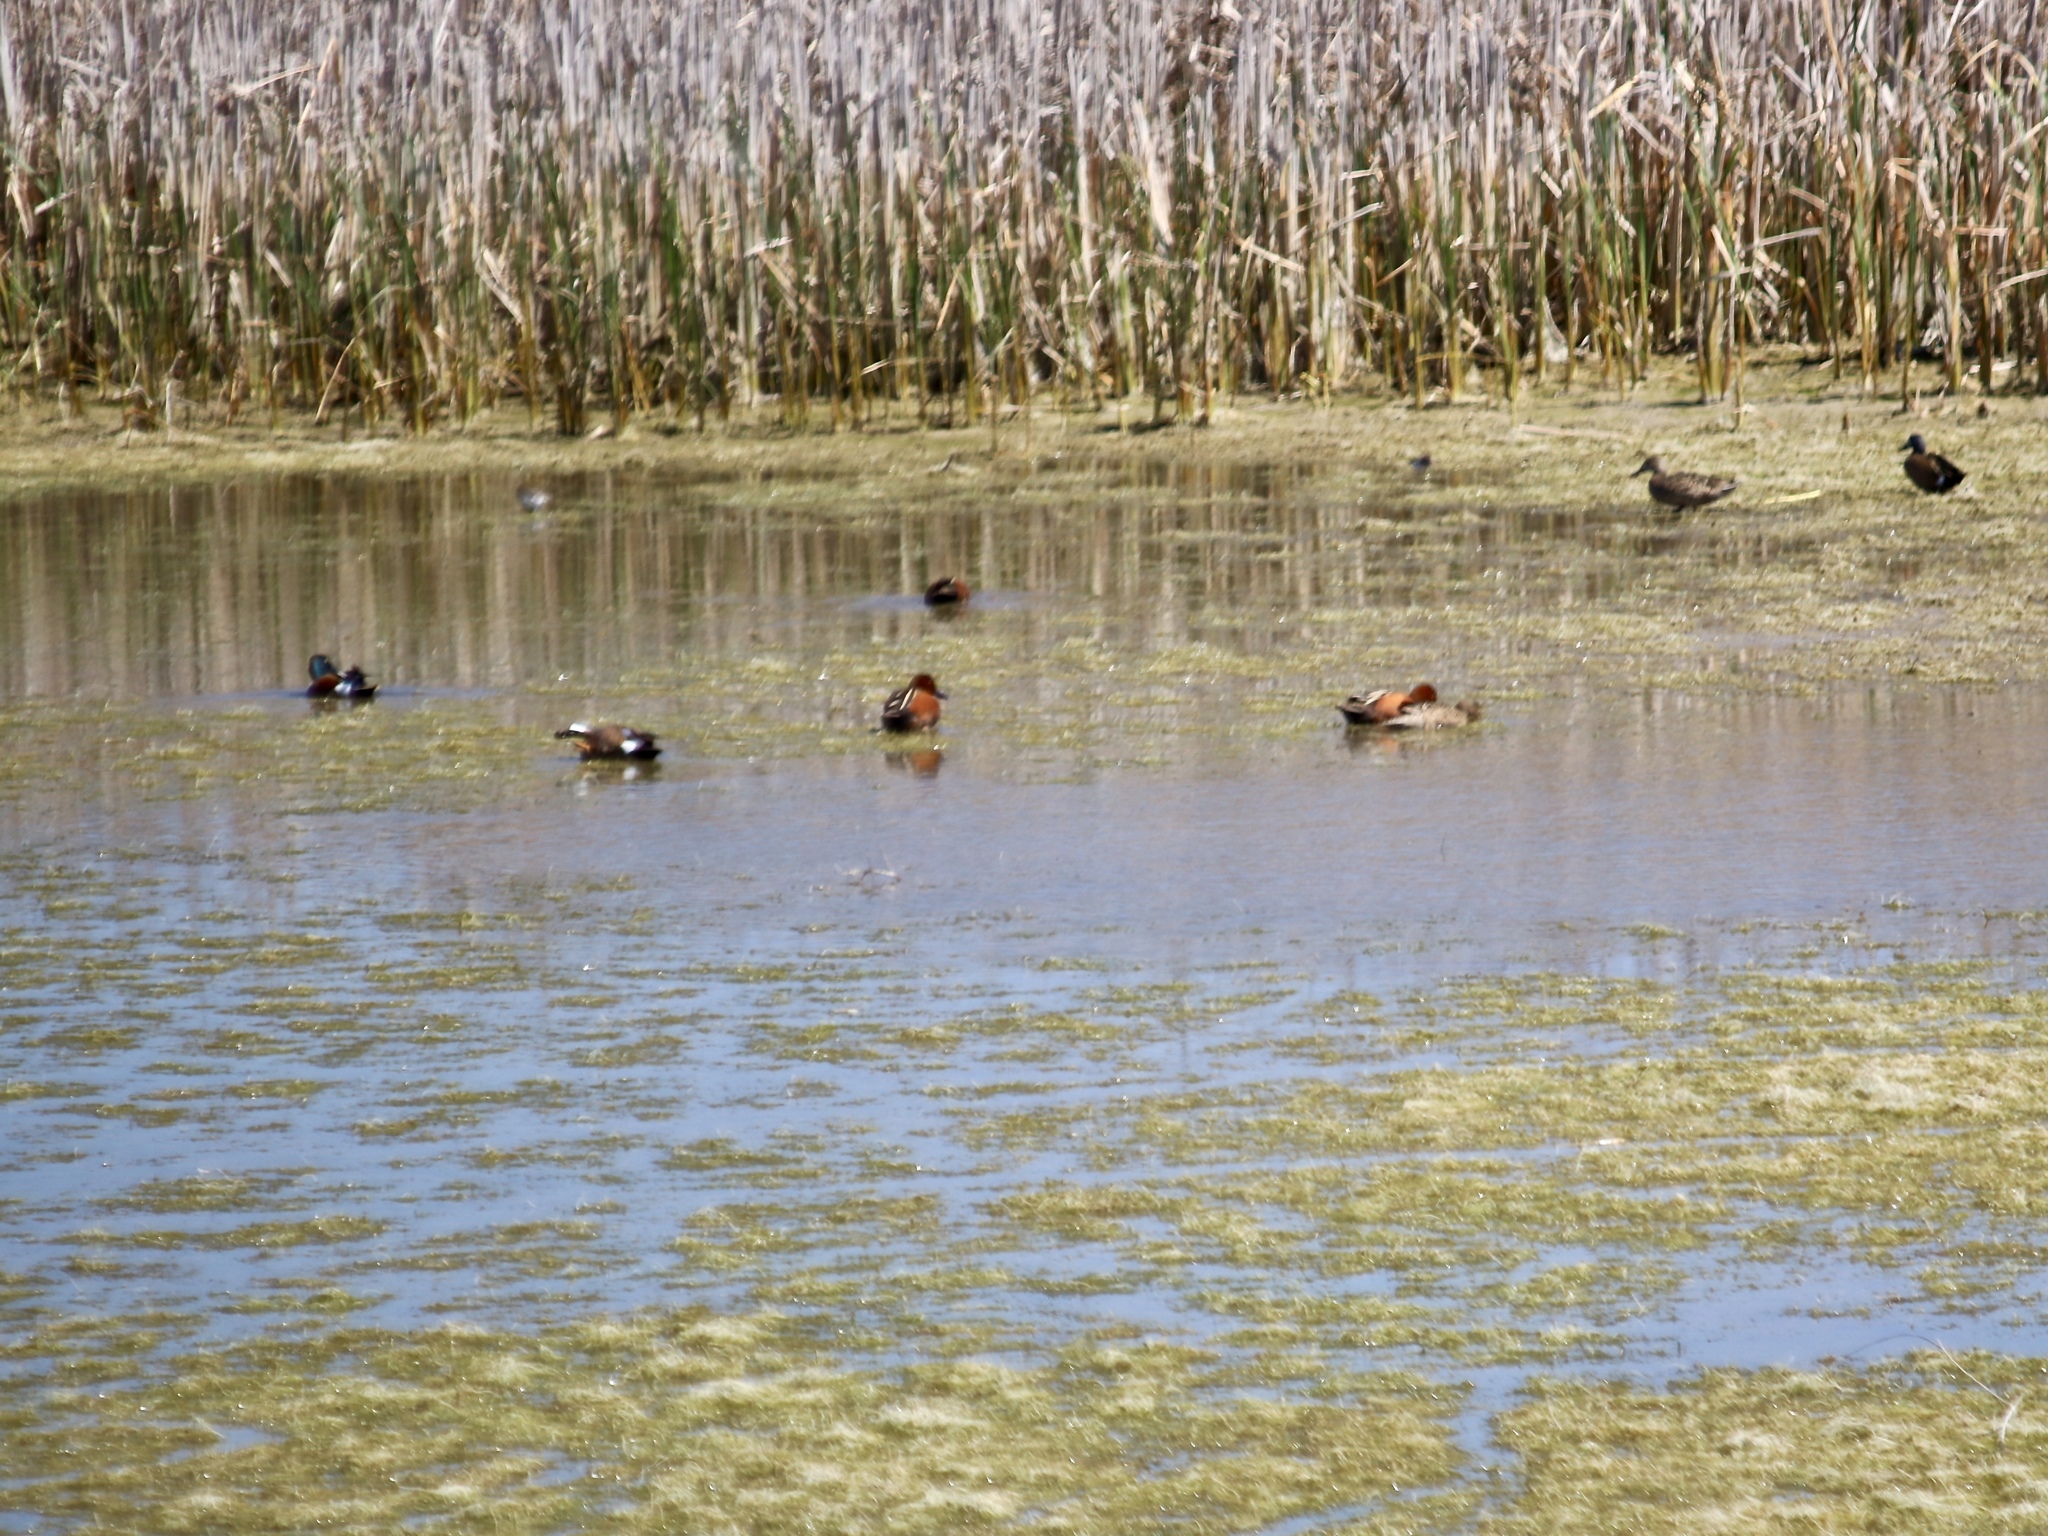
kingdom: Animalia
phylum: Chordata
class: Aves
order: Anseriformes
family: Anatidae
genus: Spatula
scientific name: Spatula cyanoptera
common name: Cinnamon teal
